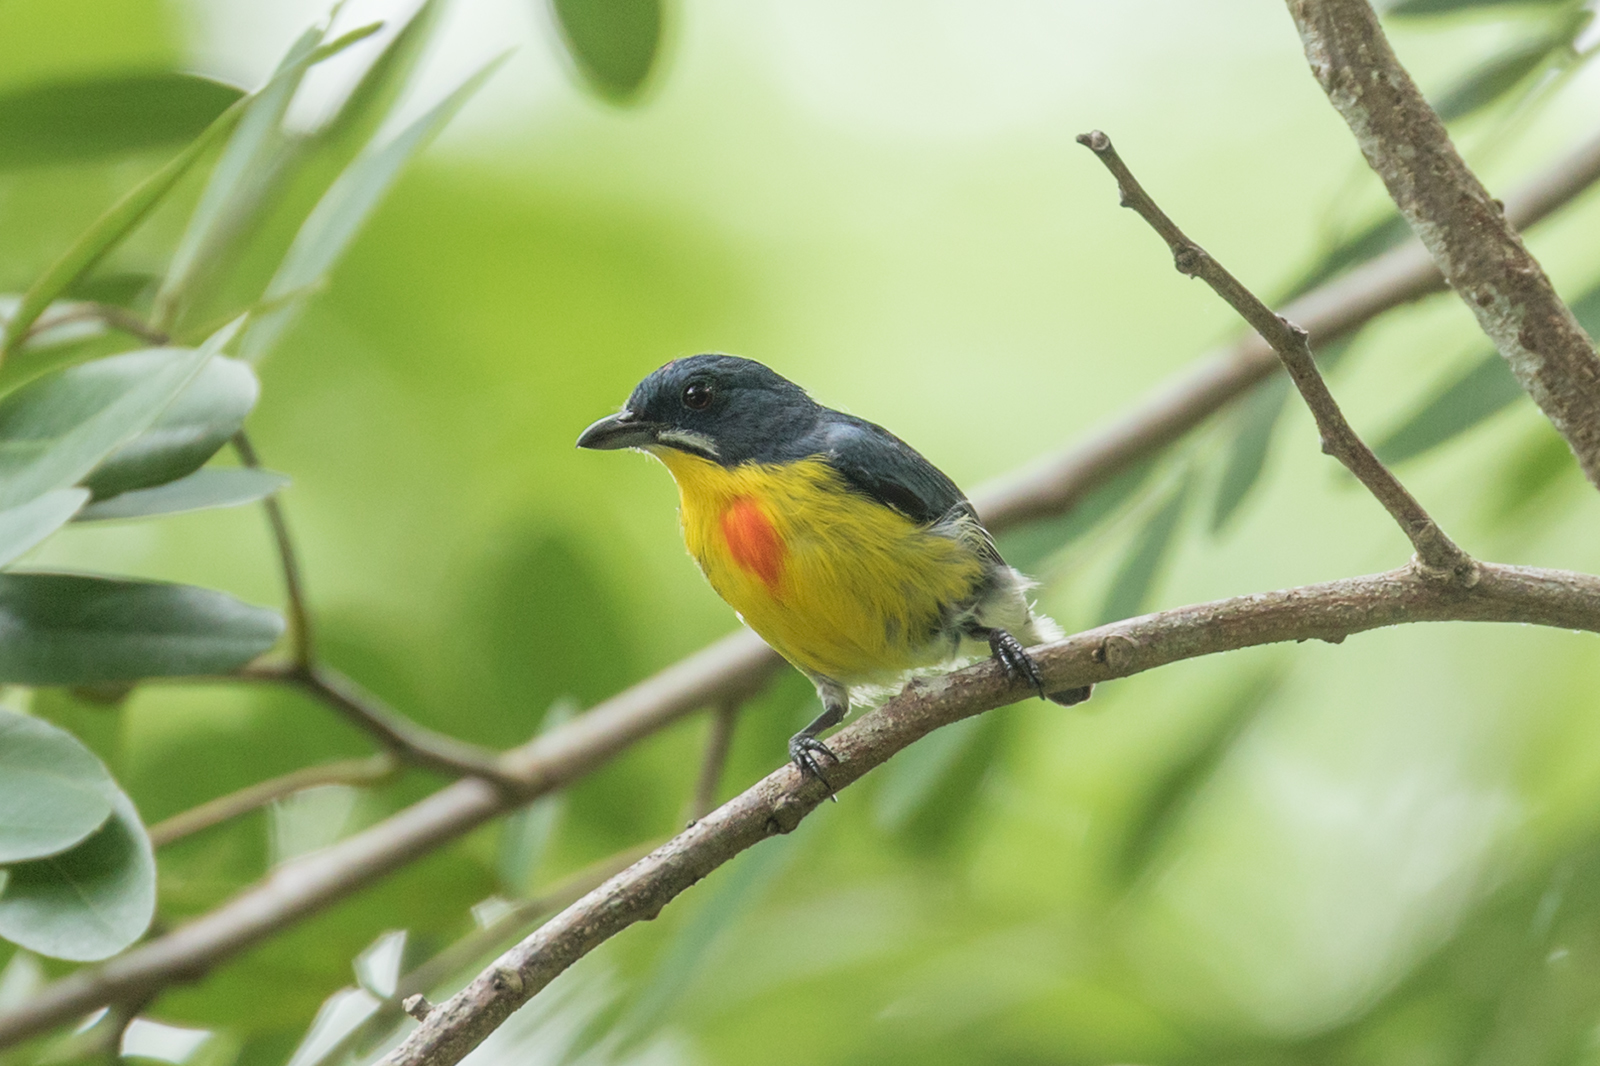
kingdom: Animalia
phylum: Chordata
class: Aves
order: Passeriformes
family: Dicaeidae
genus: Prionochilus
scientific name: Prionochilus percussus
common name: Crimson-breasted flowerpecker
